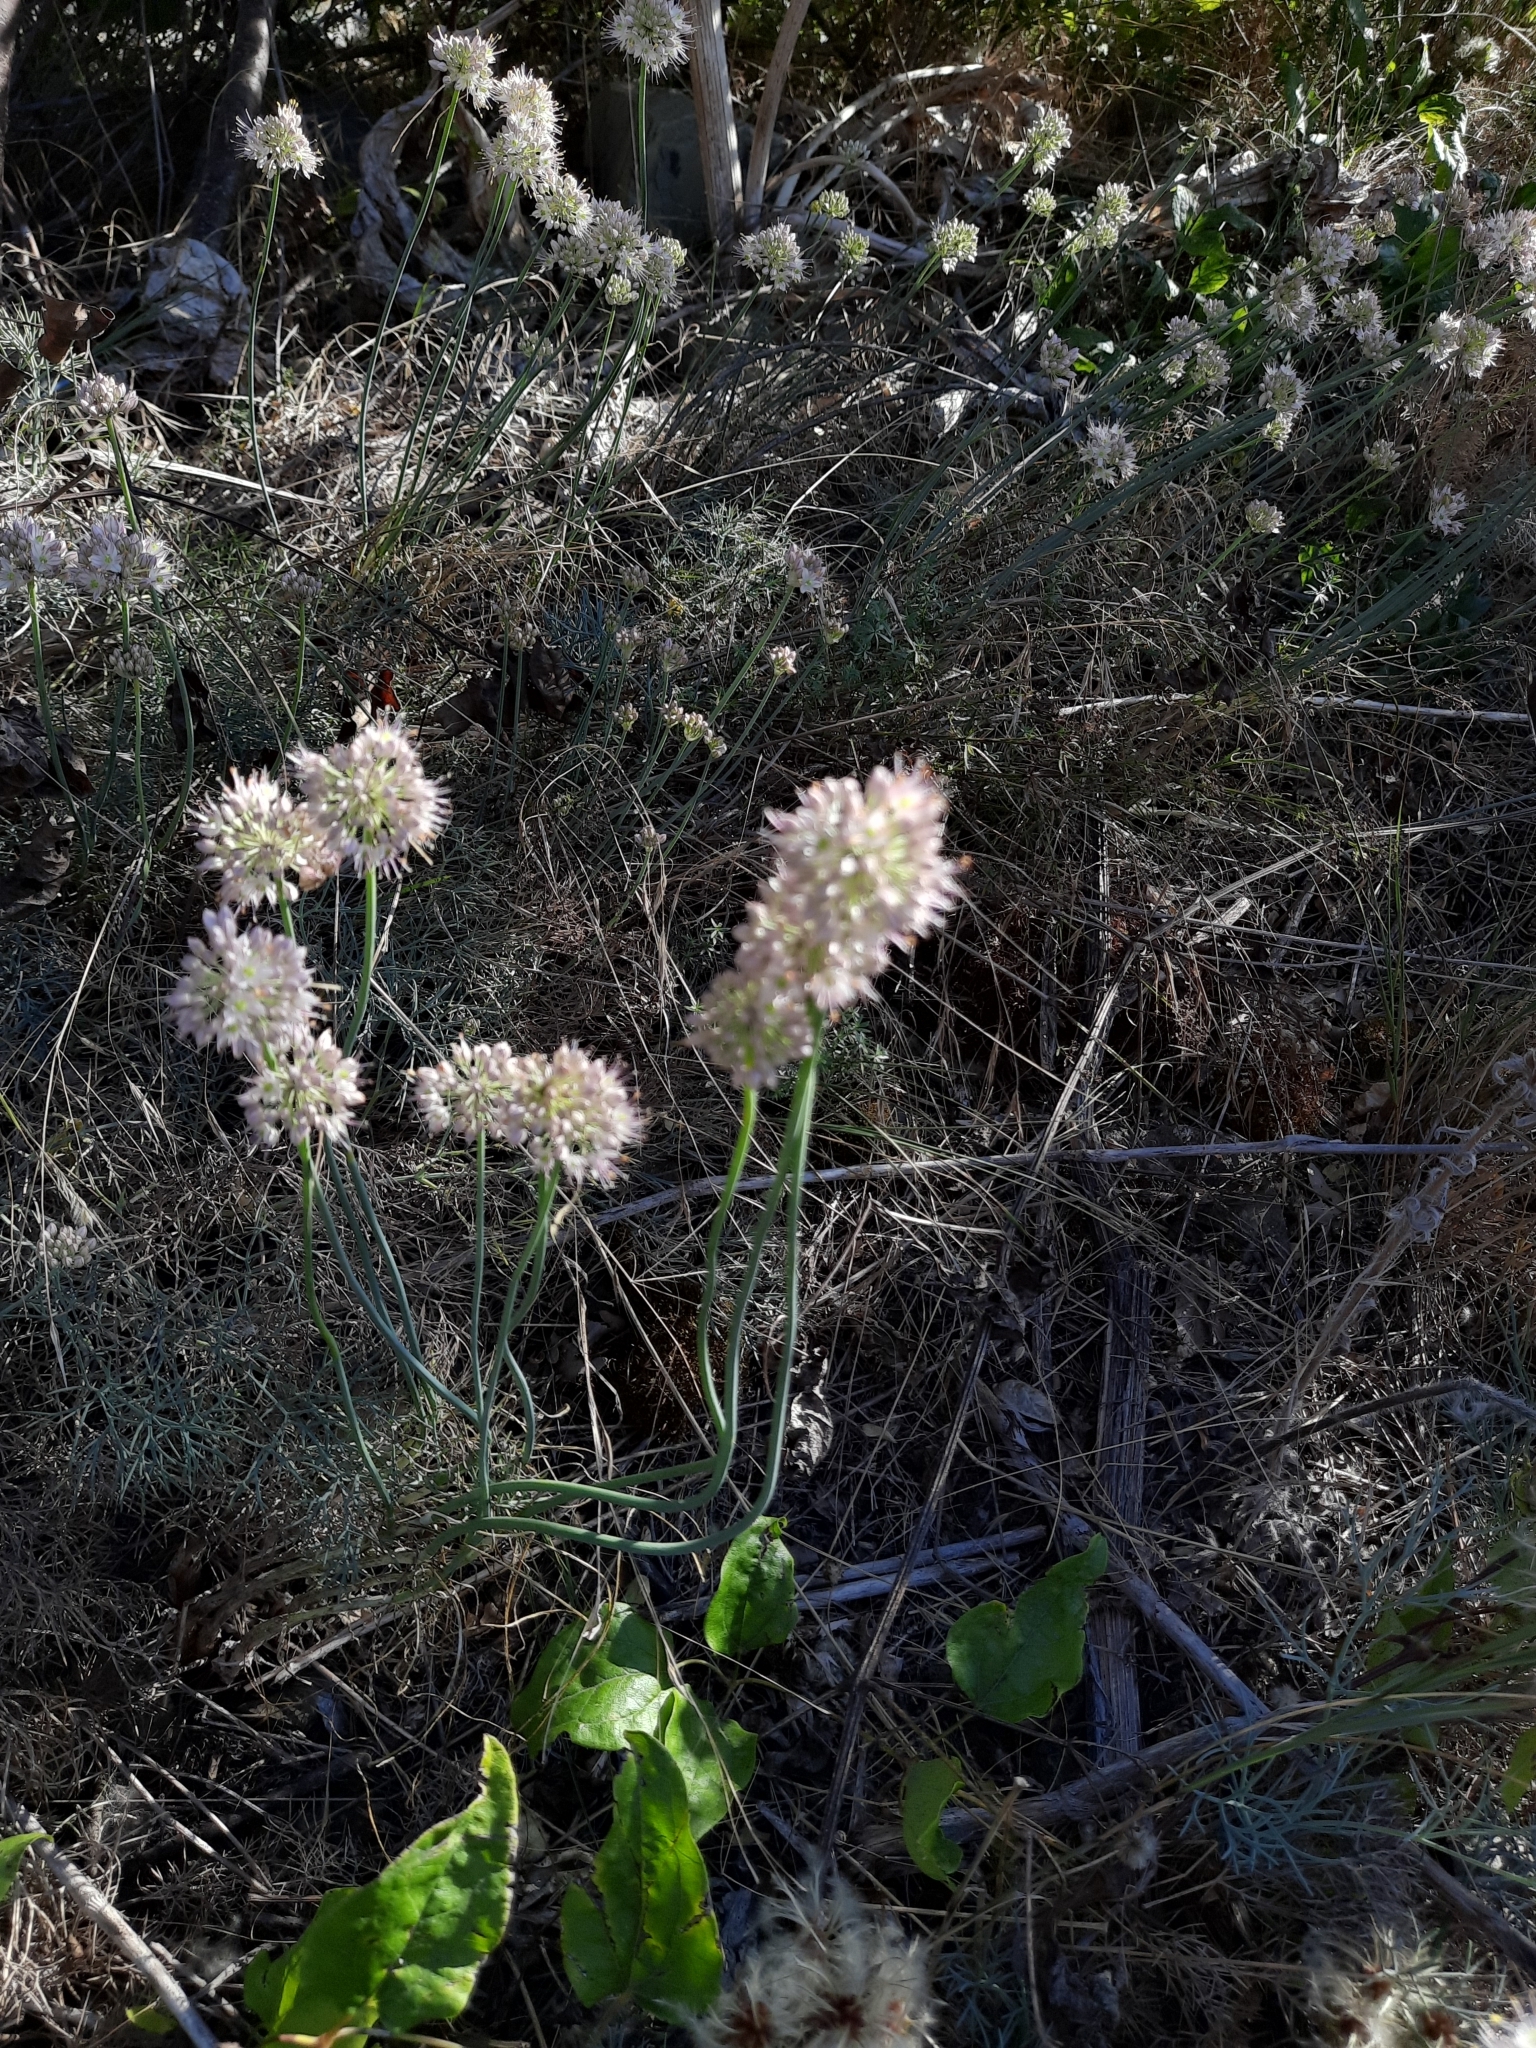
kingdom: Plantae
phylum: Tracheophyta
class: Liliopsida
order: Asparagales
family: Amaryllidaceae
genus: Allium
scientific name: Allium psebaicum
